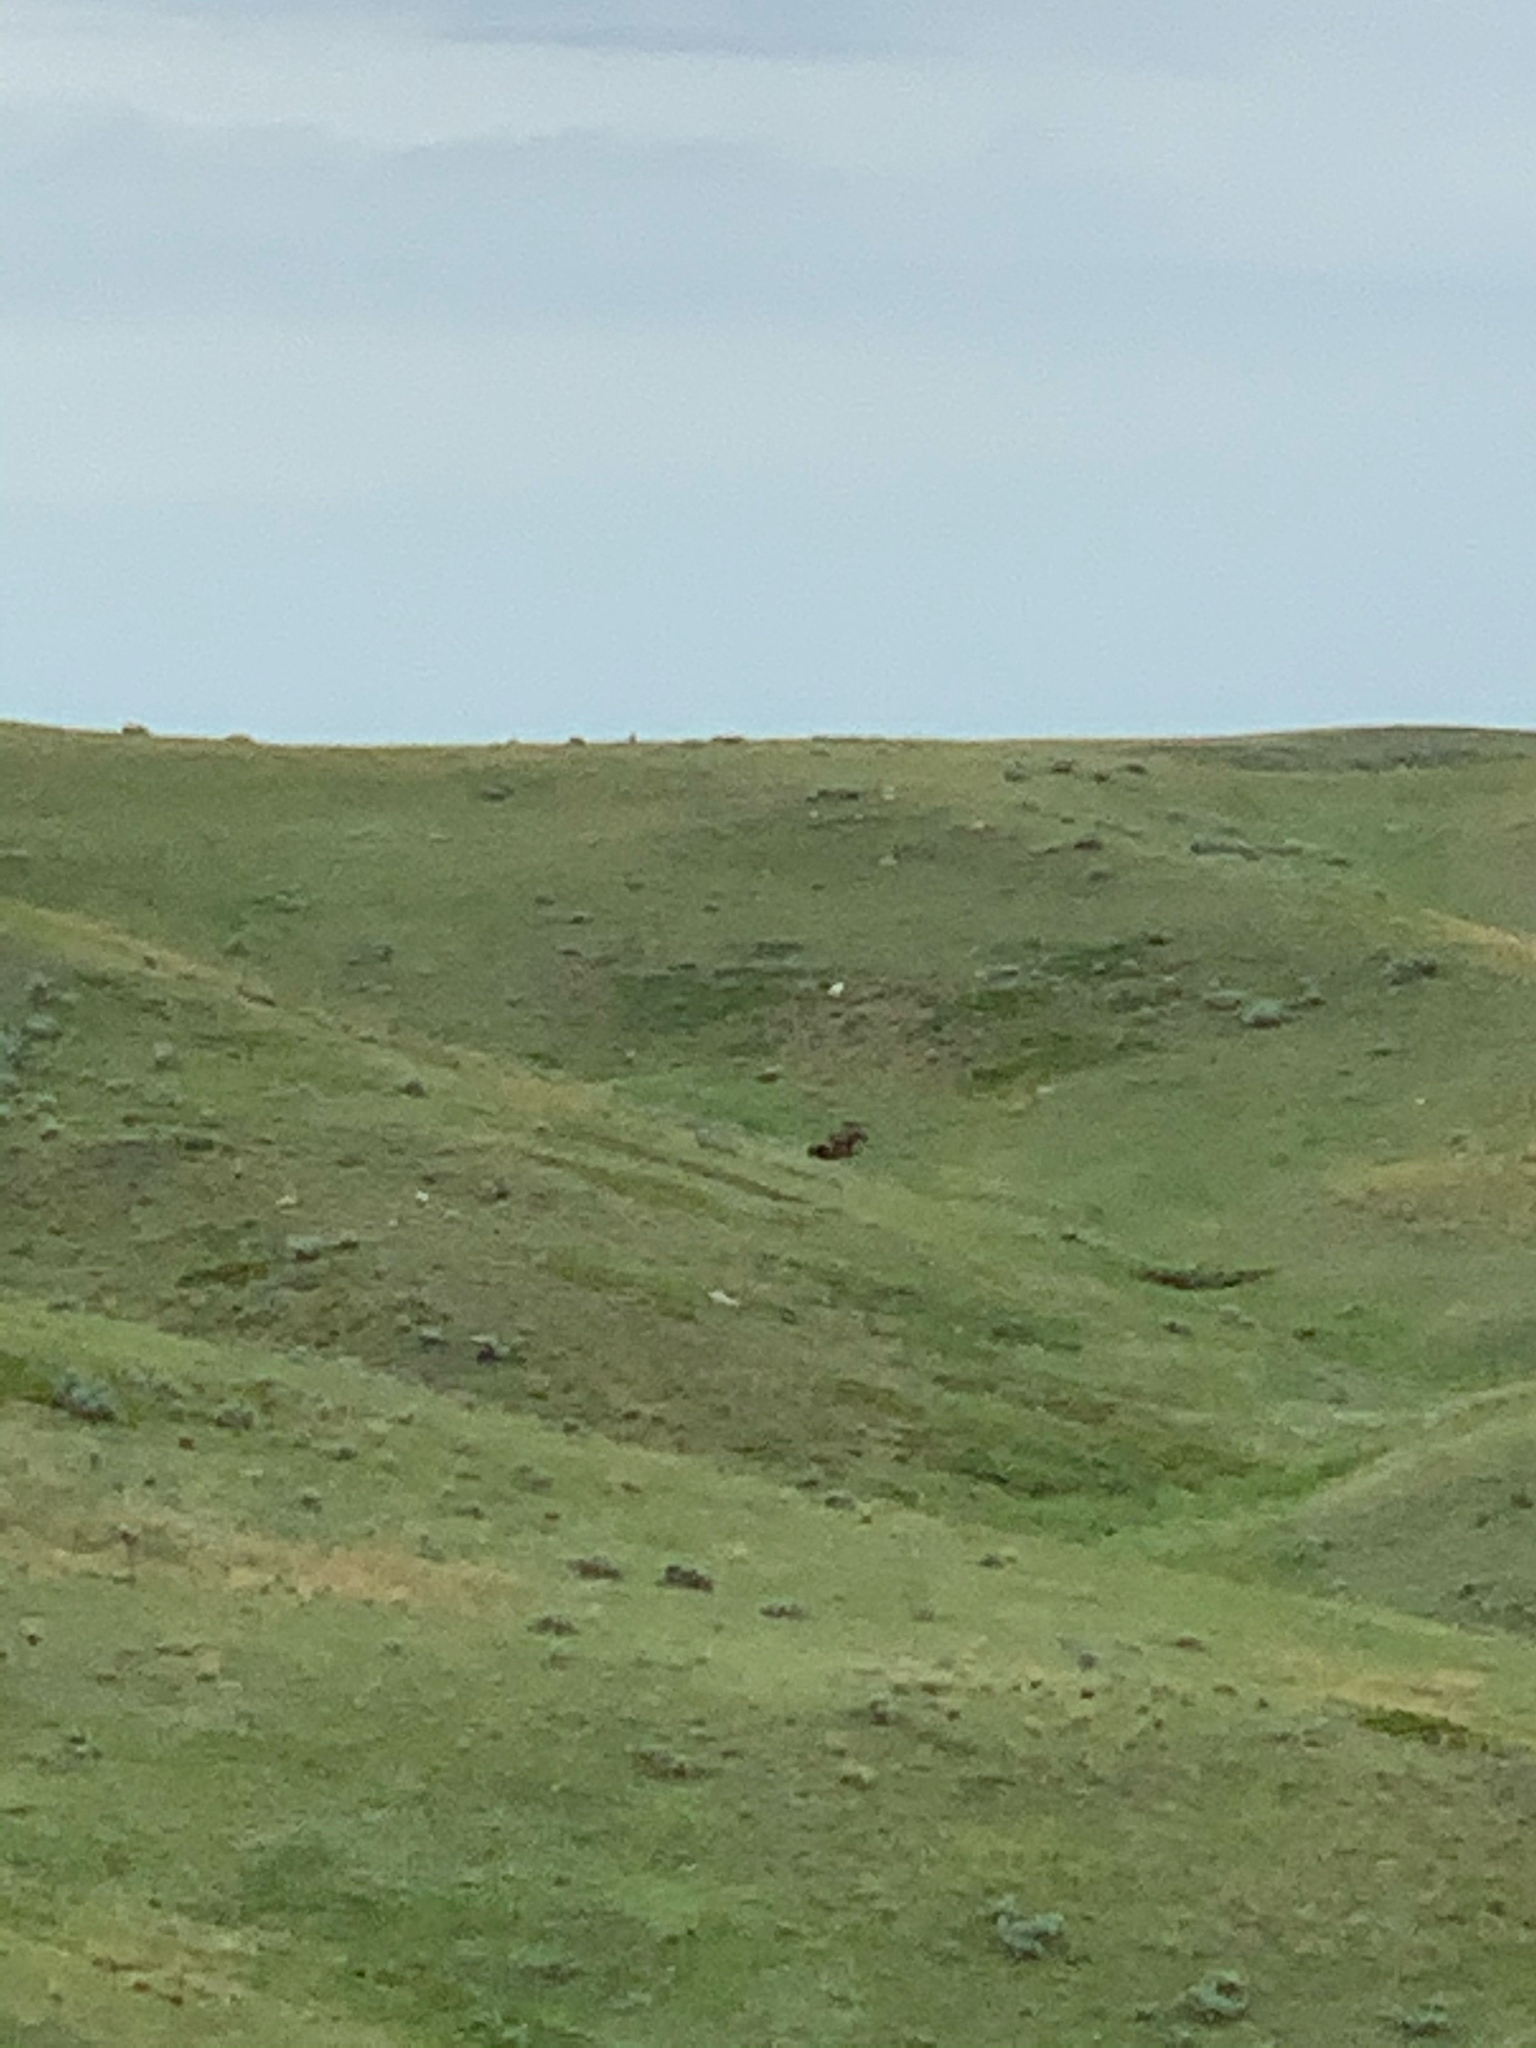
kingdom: Animalia
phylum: Chordata
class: Mammalia
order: Artiodactyla
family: Cervidae
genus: Alces
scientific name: Alces alces
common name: Moose
